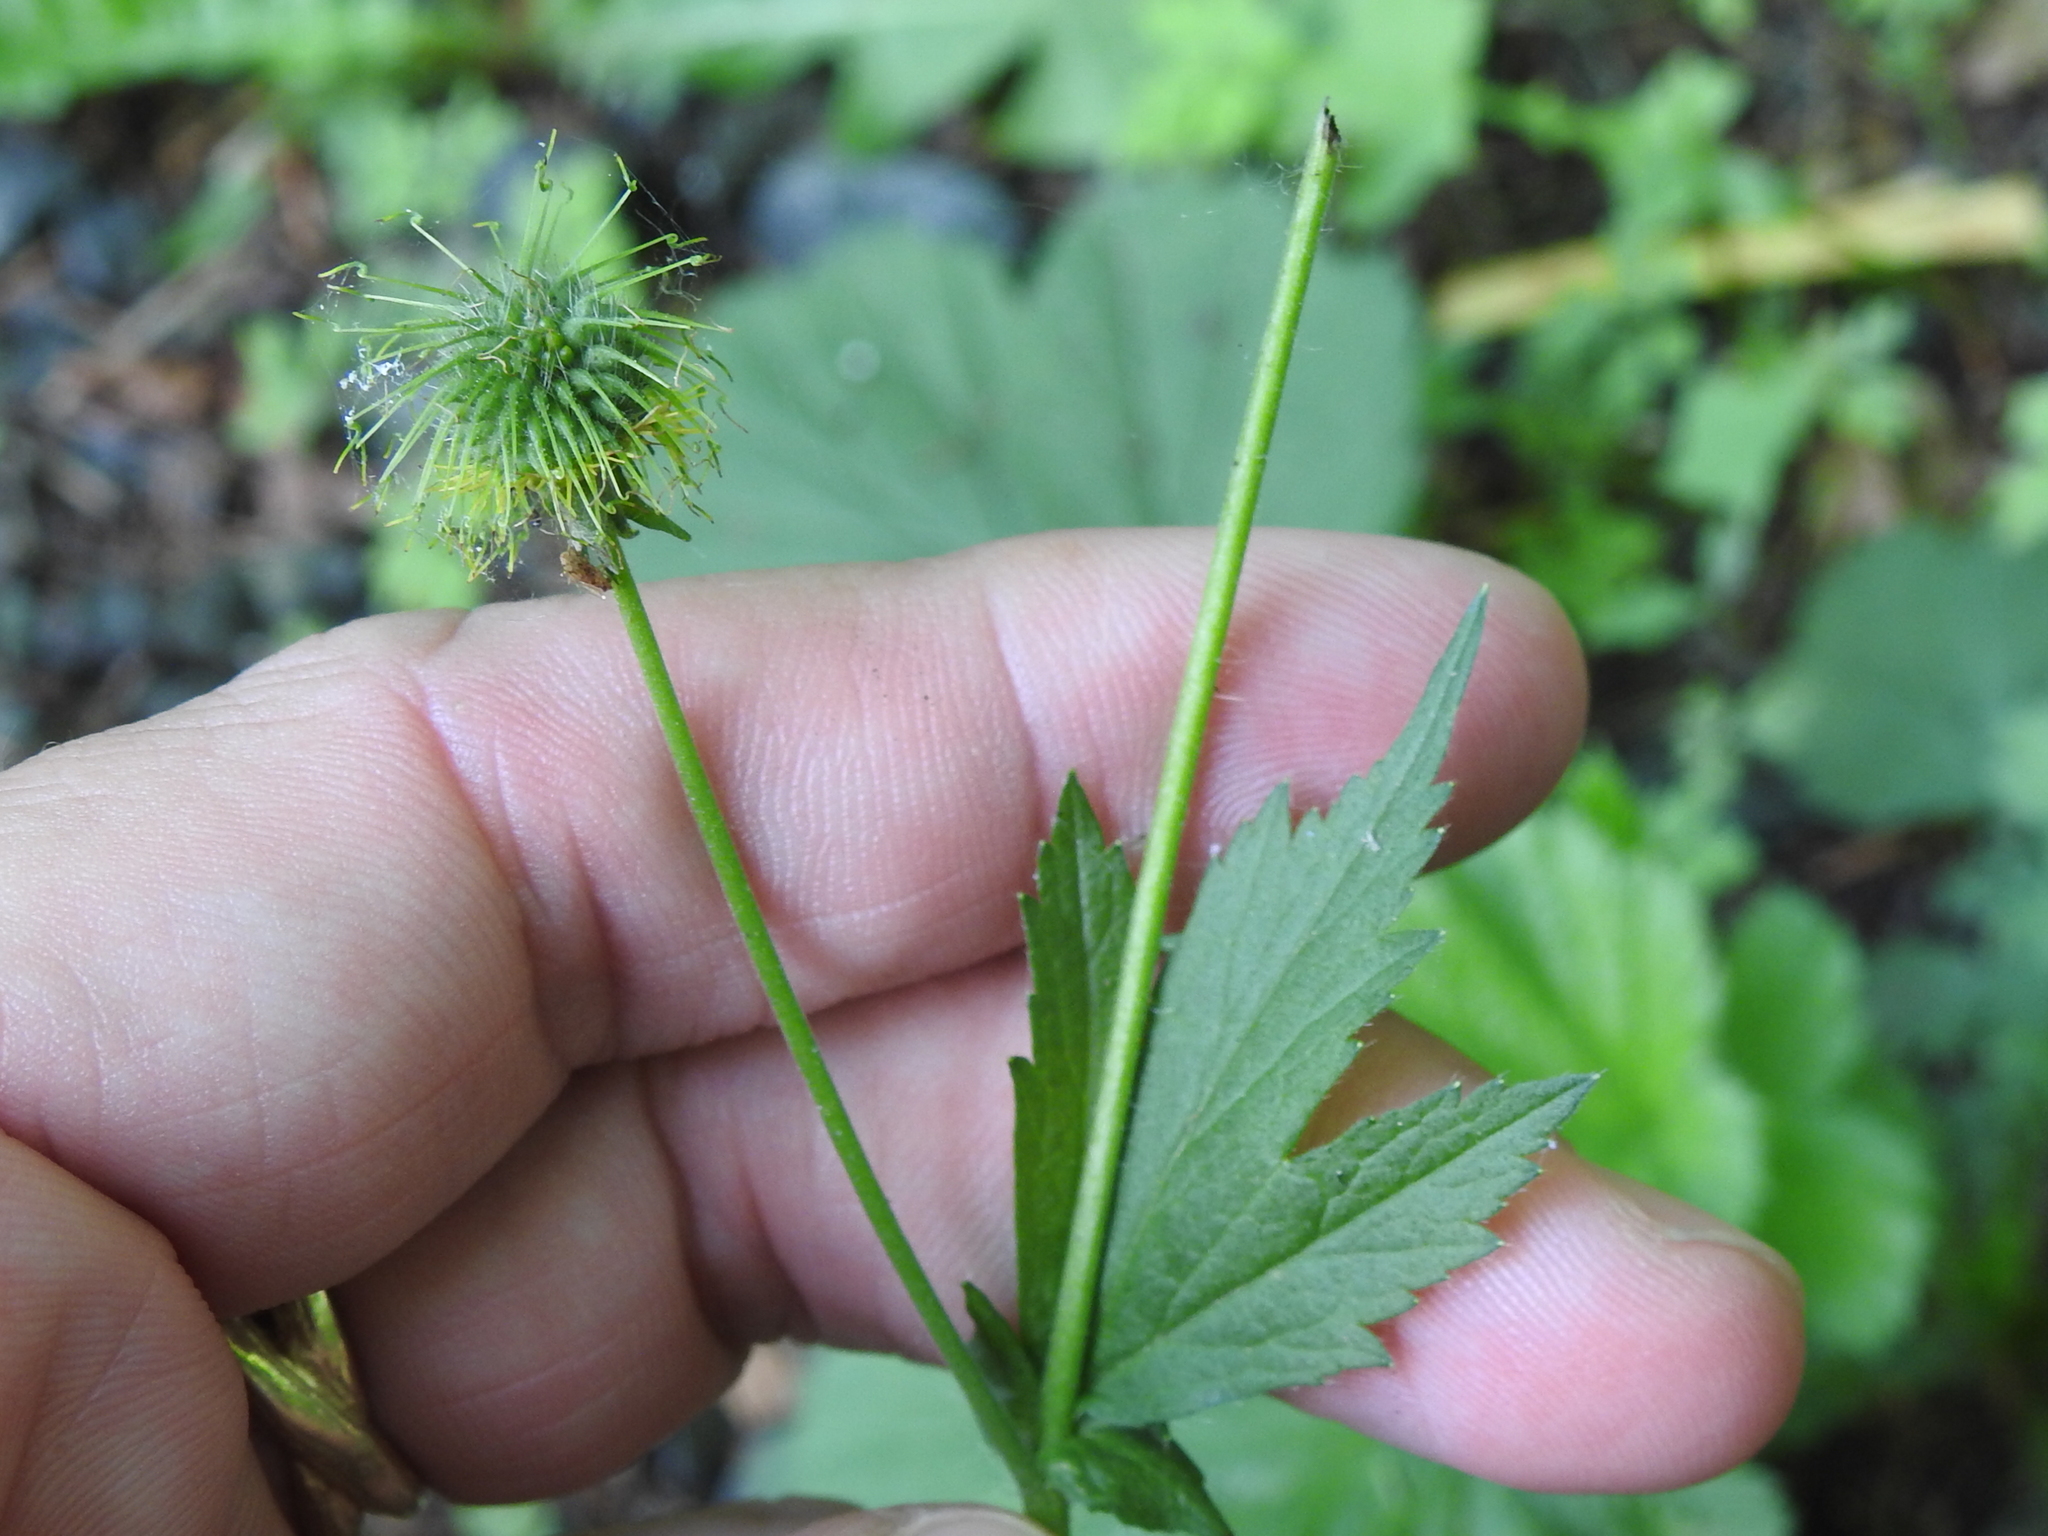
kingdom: Plantae
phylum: Tracheophyta
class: Magnoliopsida
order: Rosales
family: Rosaceae
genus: Geum
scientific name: Geum macrophyllum
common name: Large-leaved avens
